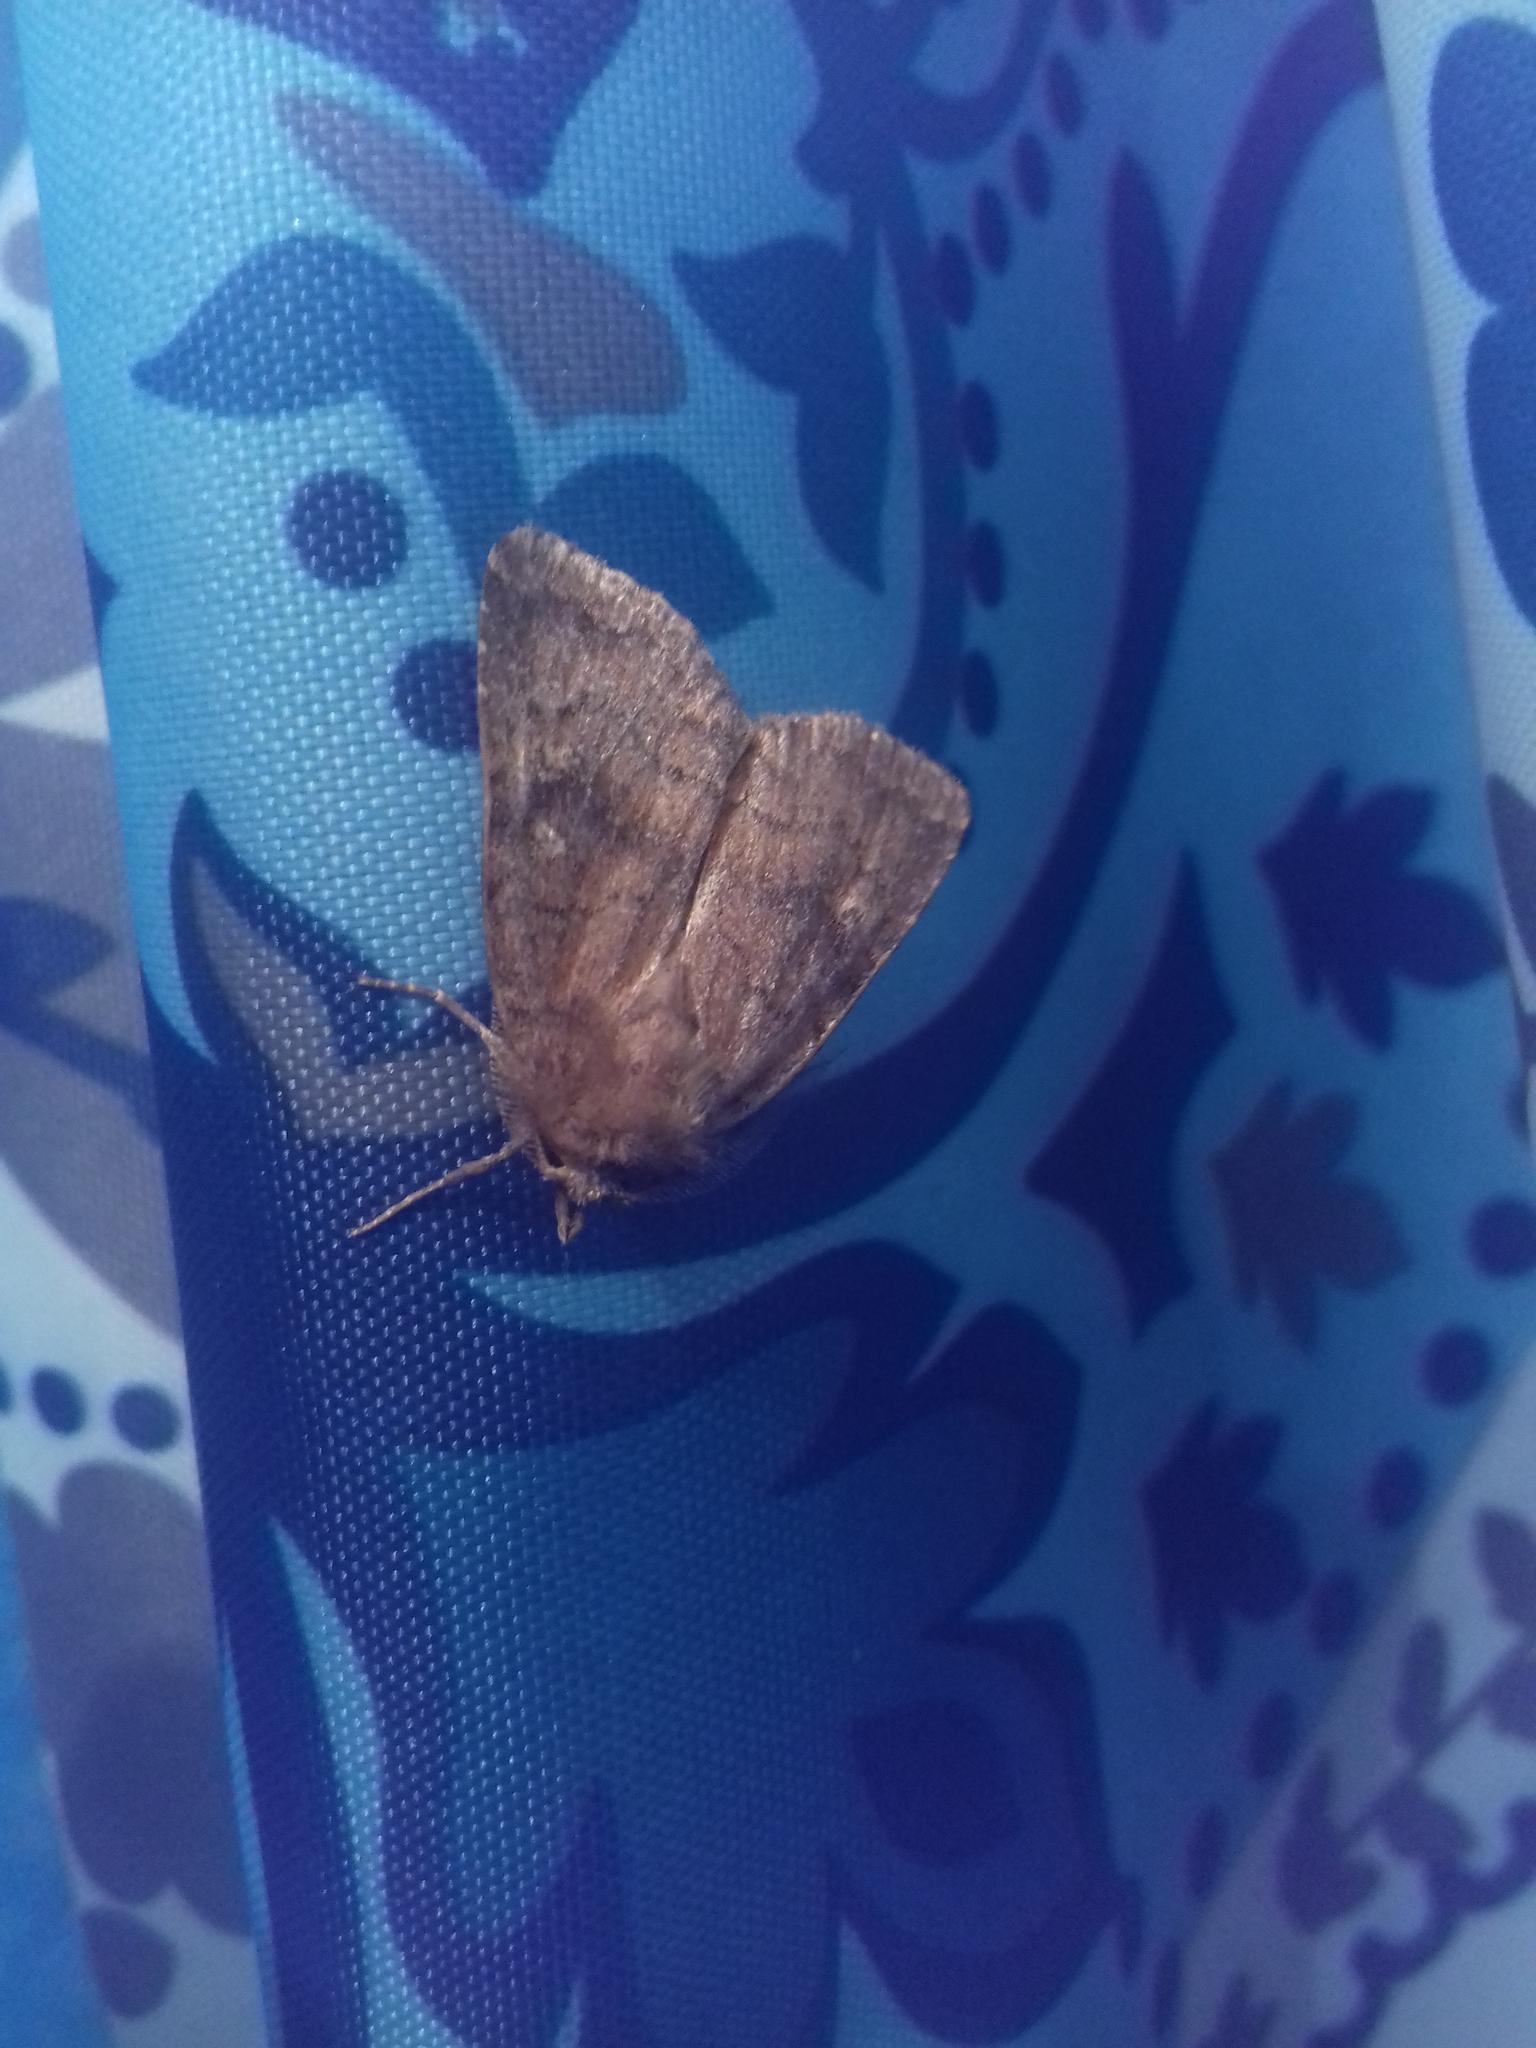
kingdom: Animalia
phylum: Arthropoda
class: Insecta
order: Lepidoptera
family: Noctuidae
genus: Charanyca
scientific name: Charanyca ferruginea
